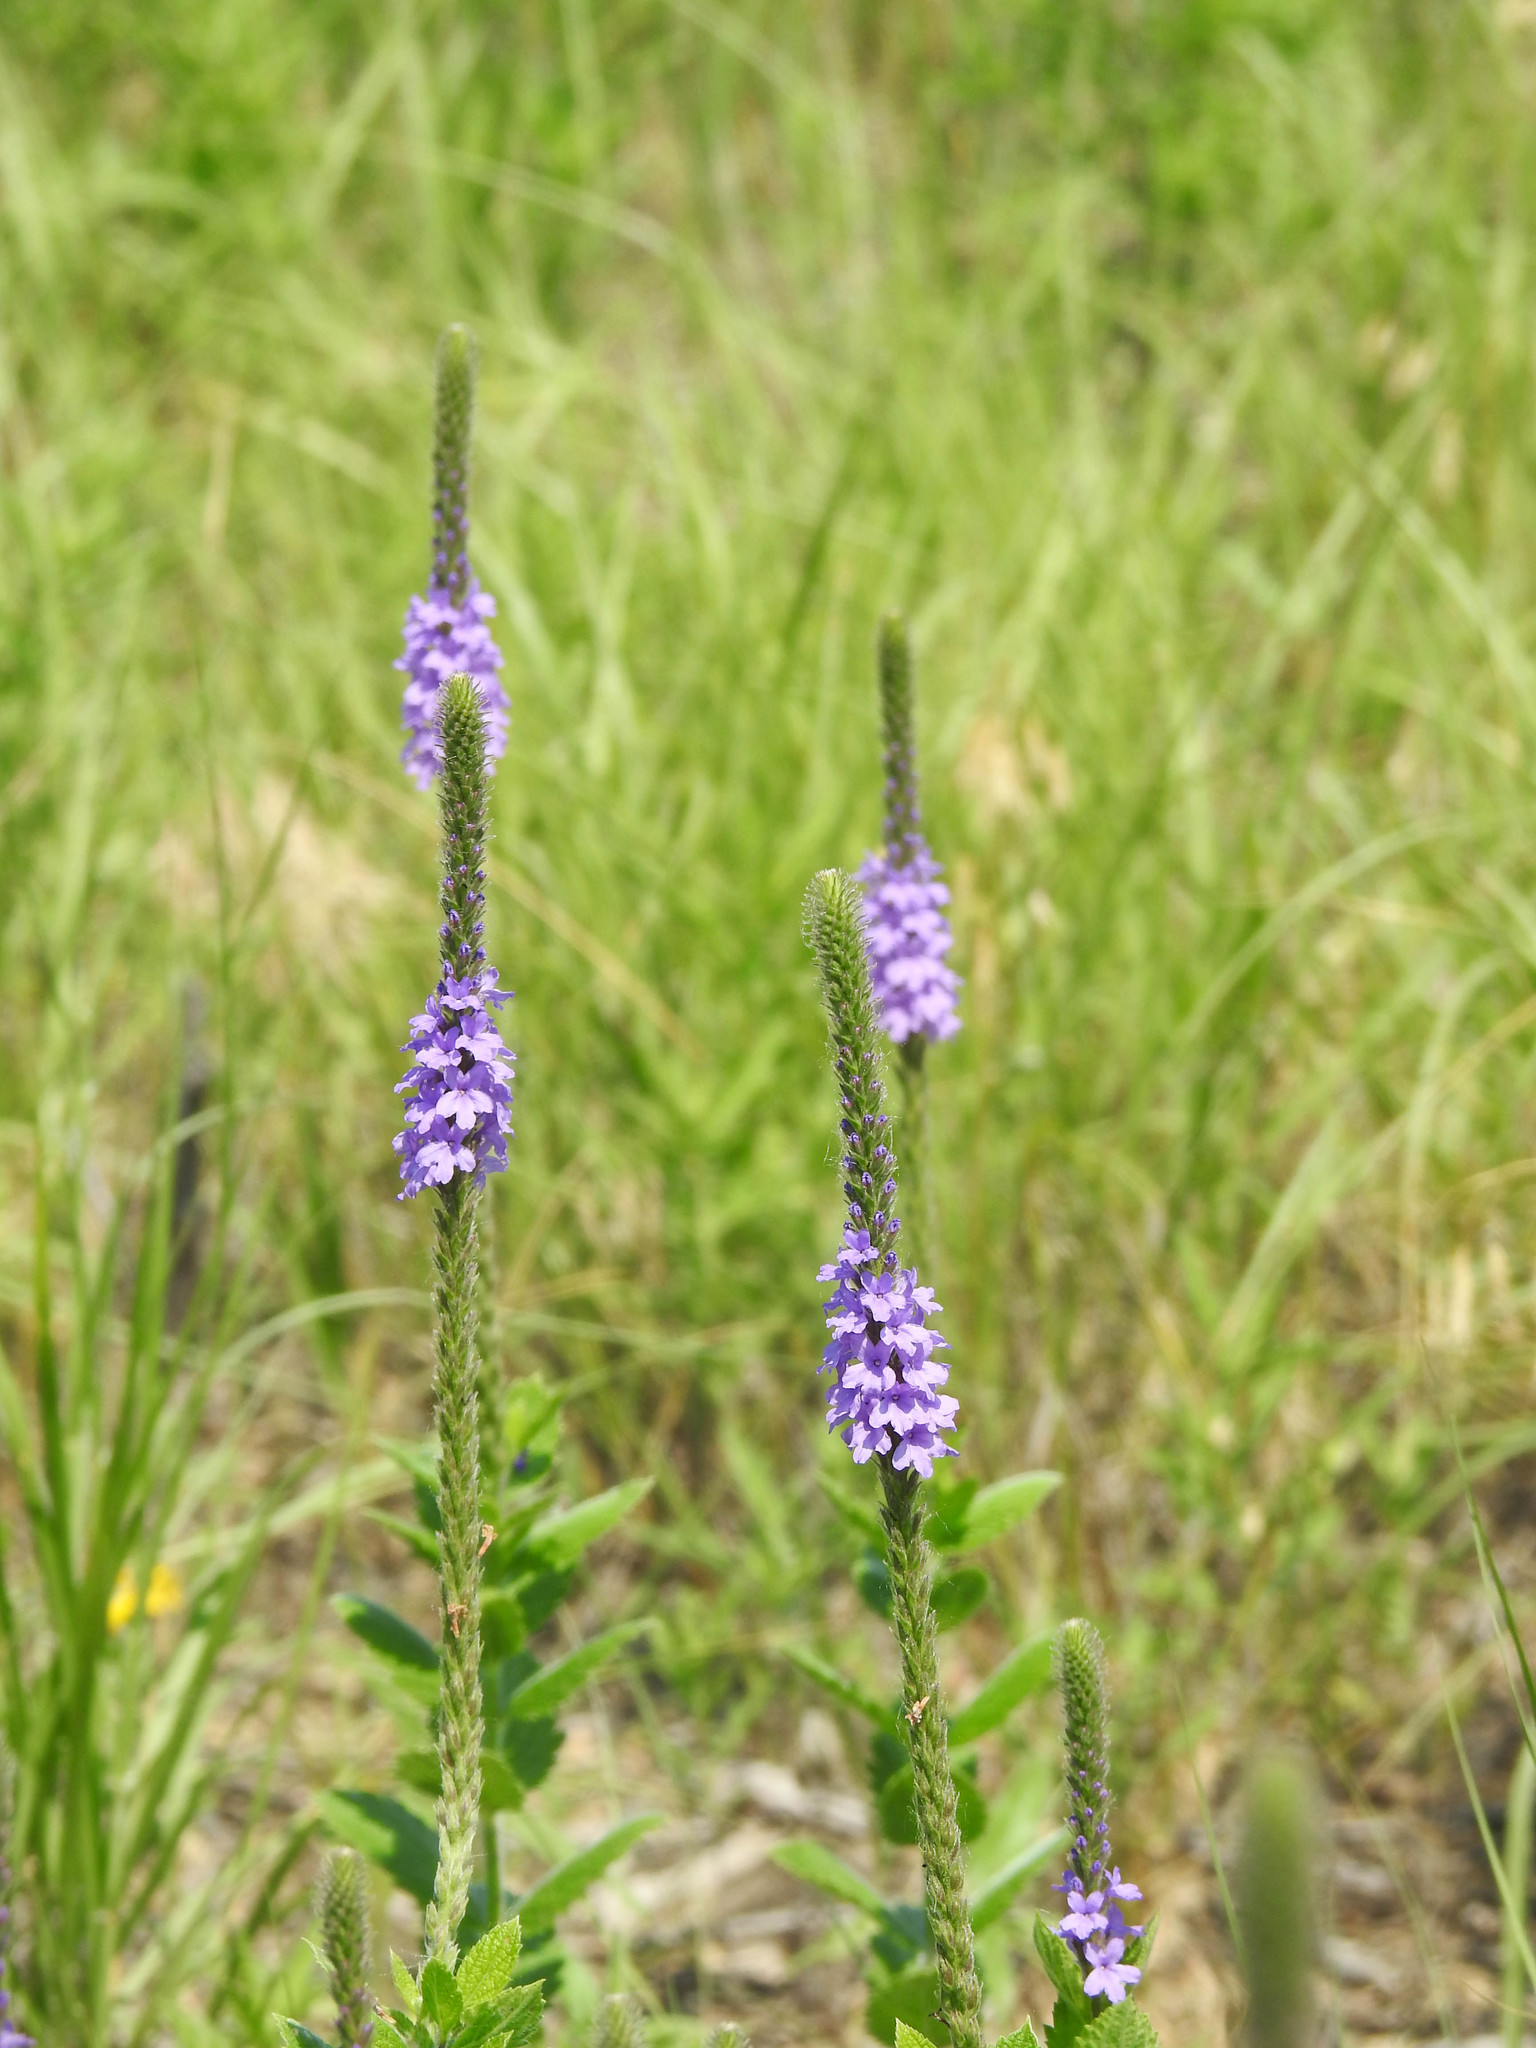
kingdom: Plantae
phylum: Tracheophyta
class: Magnoliopsida
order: Lamiales
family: Verbenaceae
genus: Verbena
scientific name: Verbena stricta
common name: Hoary vervain
